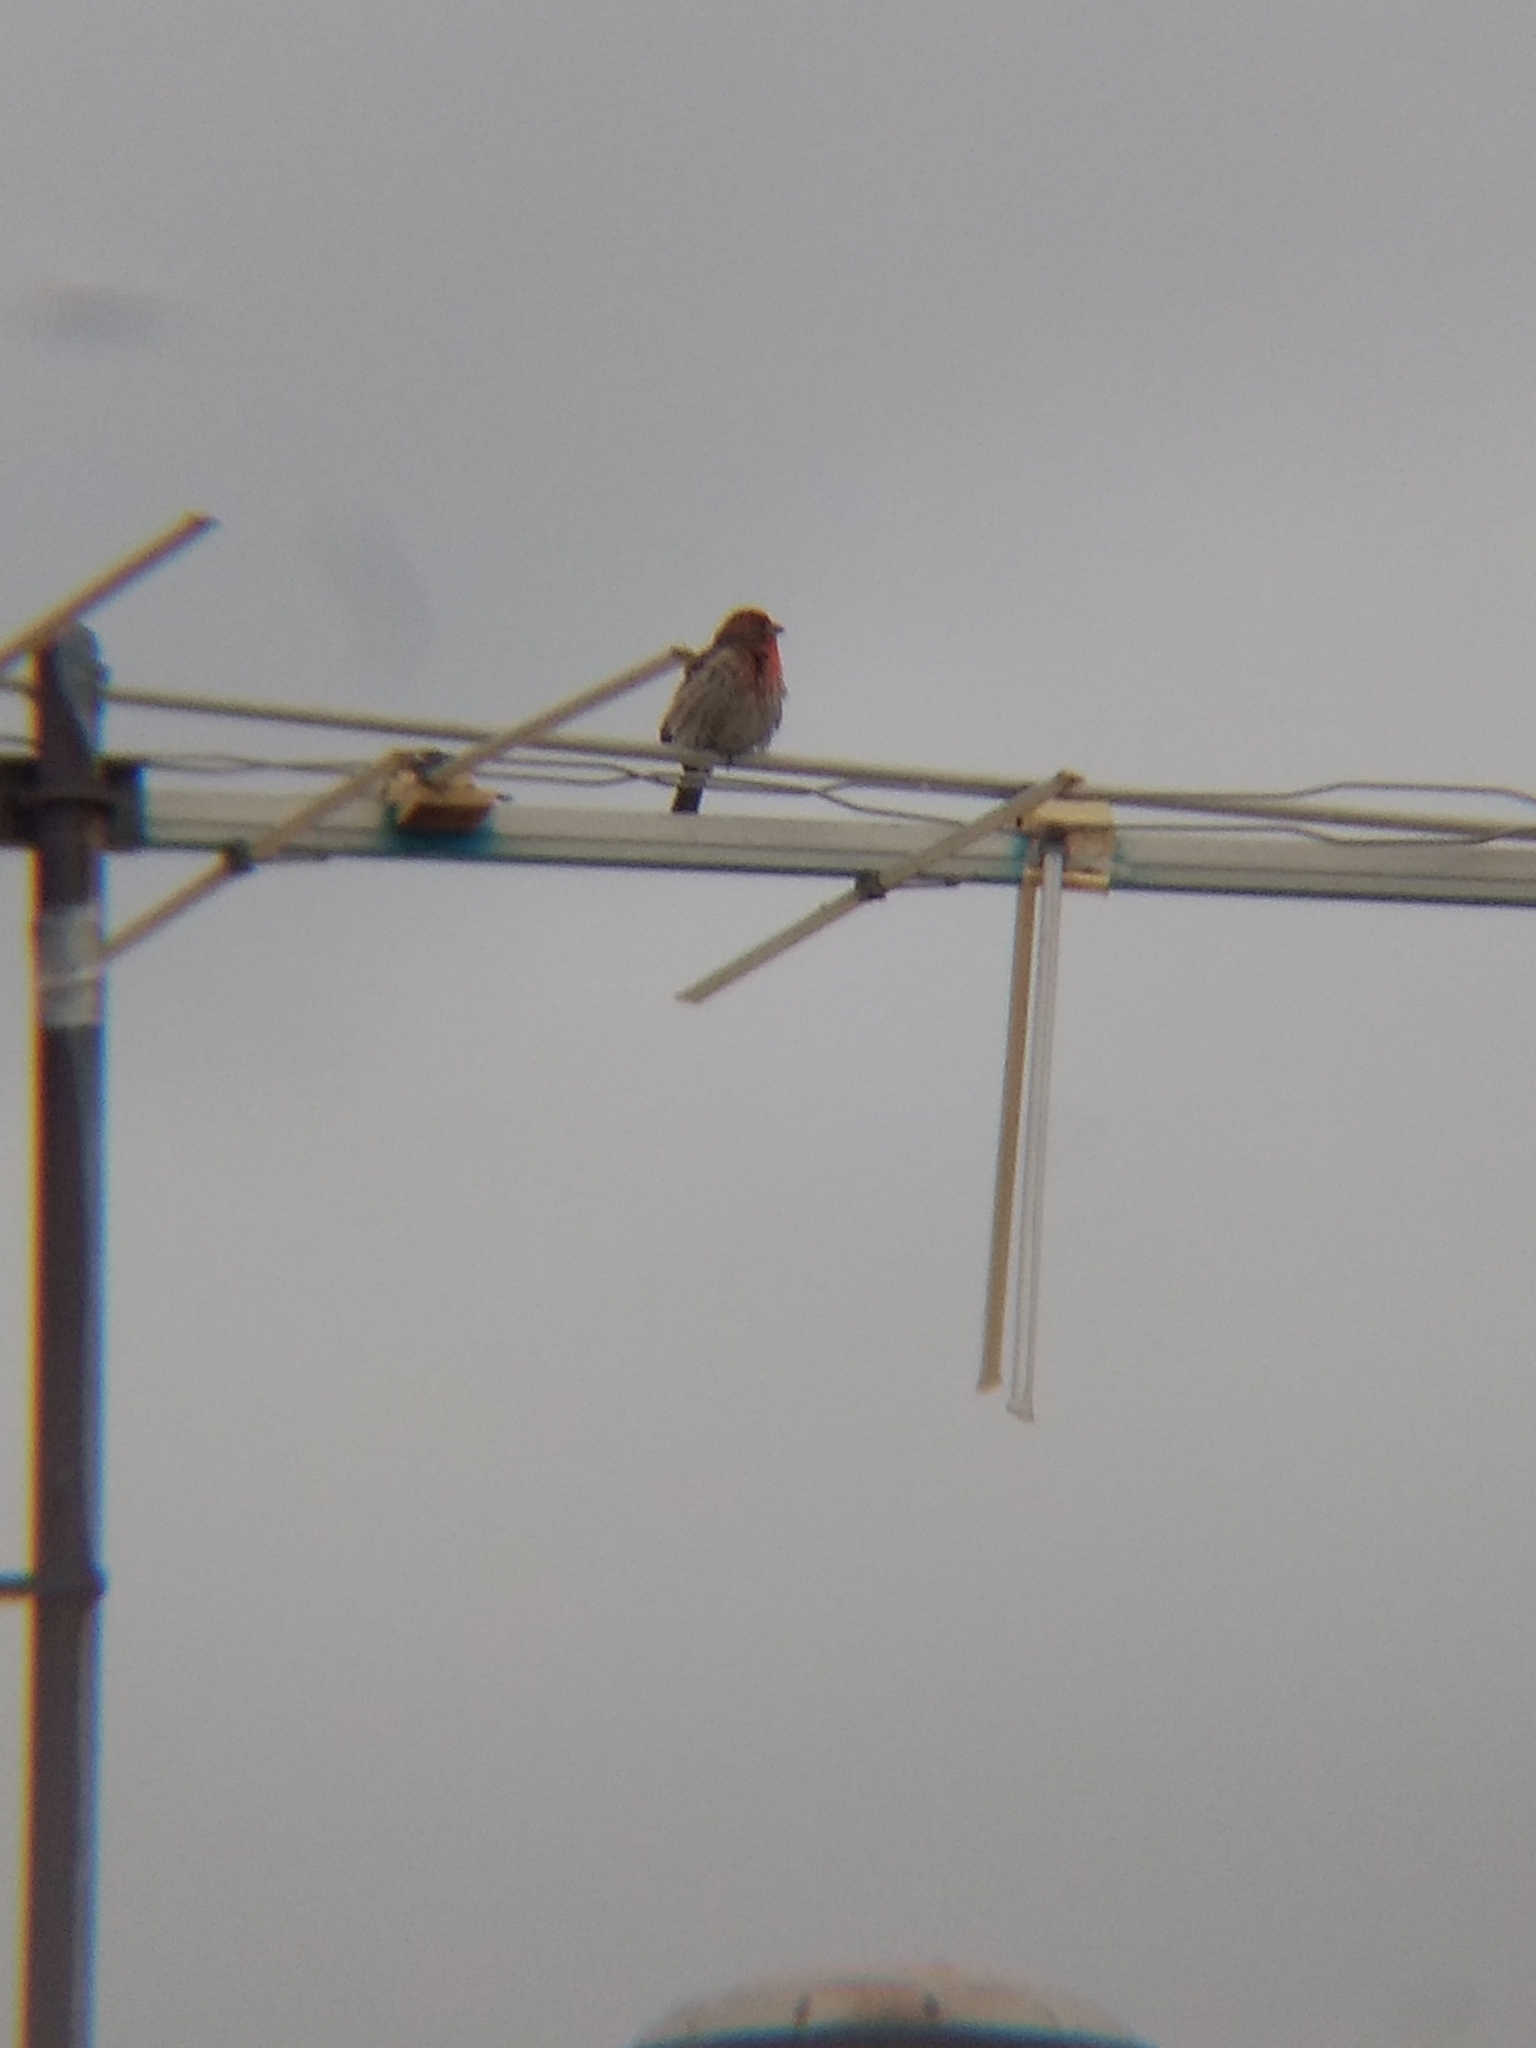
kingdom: Animalia
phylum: Chordata
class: Aves
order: Passeriformes
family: Fringillidae
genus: Haemorhous
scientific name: Haemorhous mexicanus
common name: House finch
